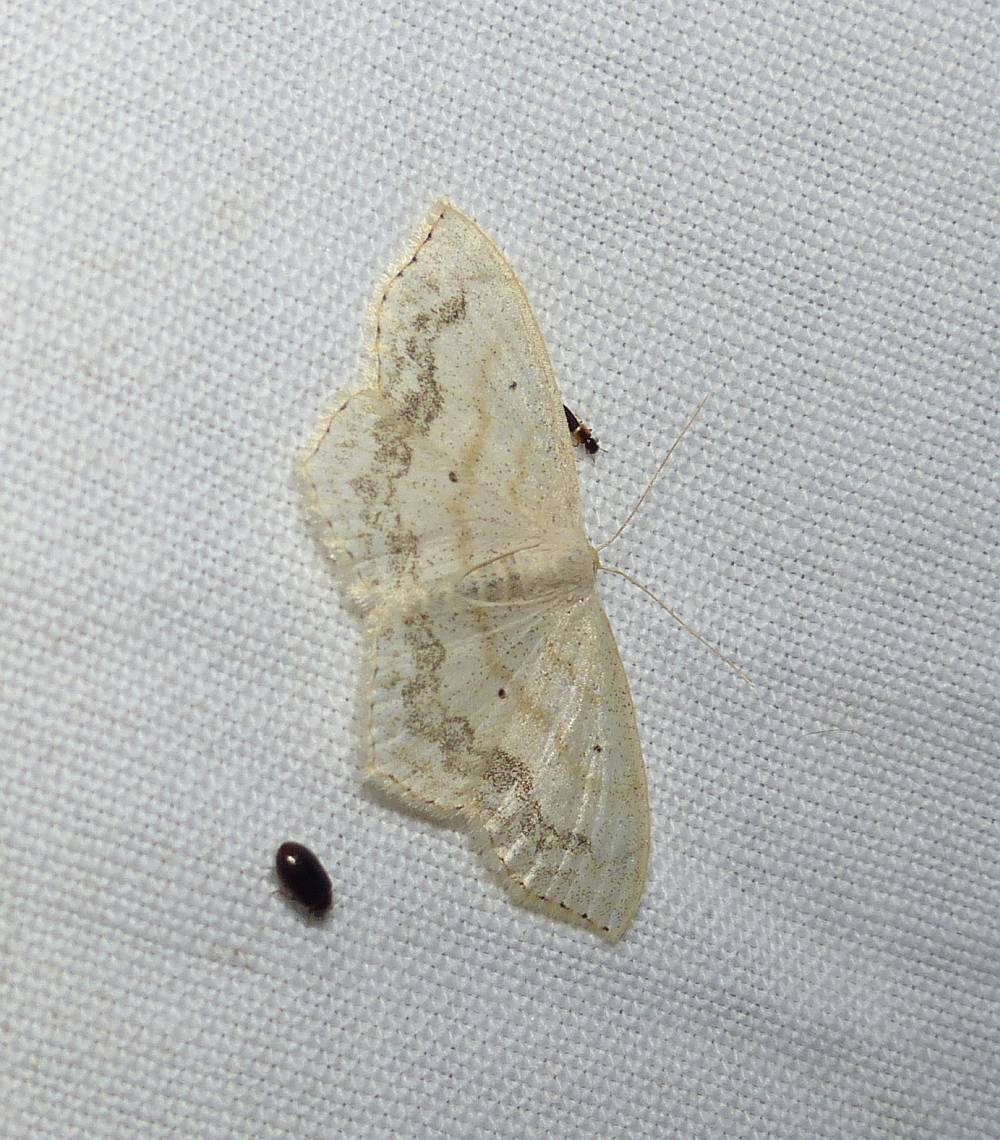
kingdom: Animalia
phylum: Arthropoda
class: Insecta
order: Lepidoptera
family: Geometridae
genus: Scopula
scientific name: Scopula limboundata
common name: Large lace border
